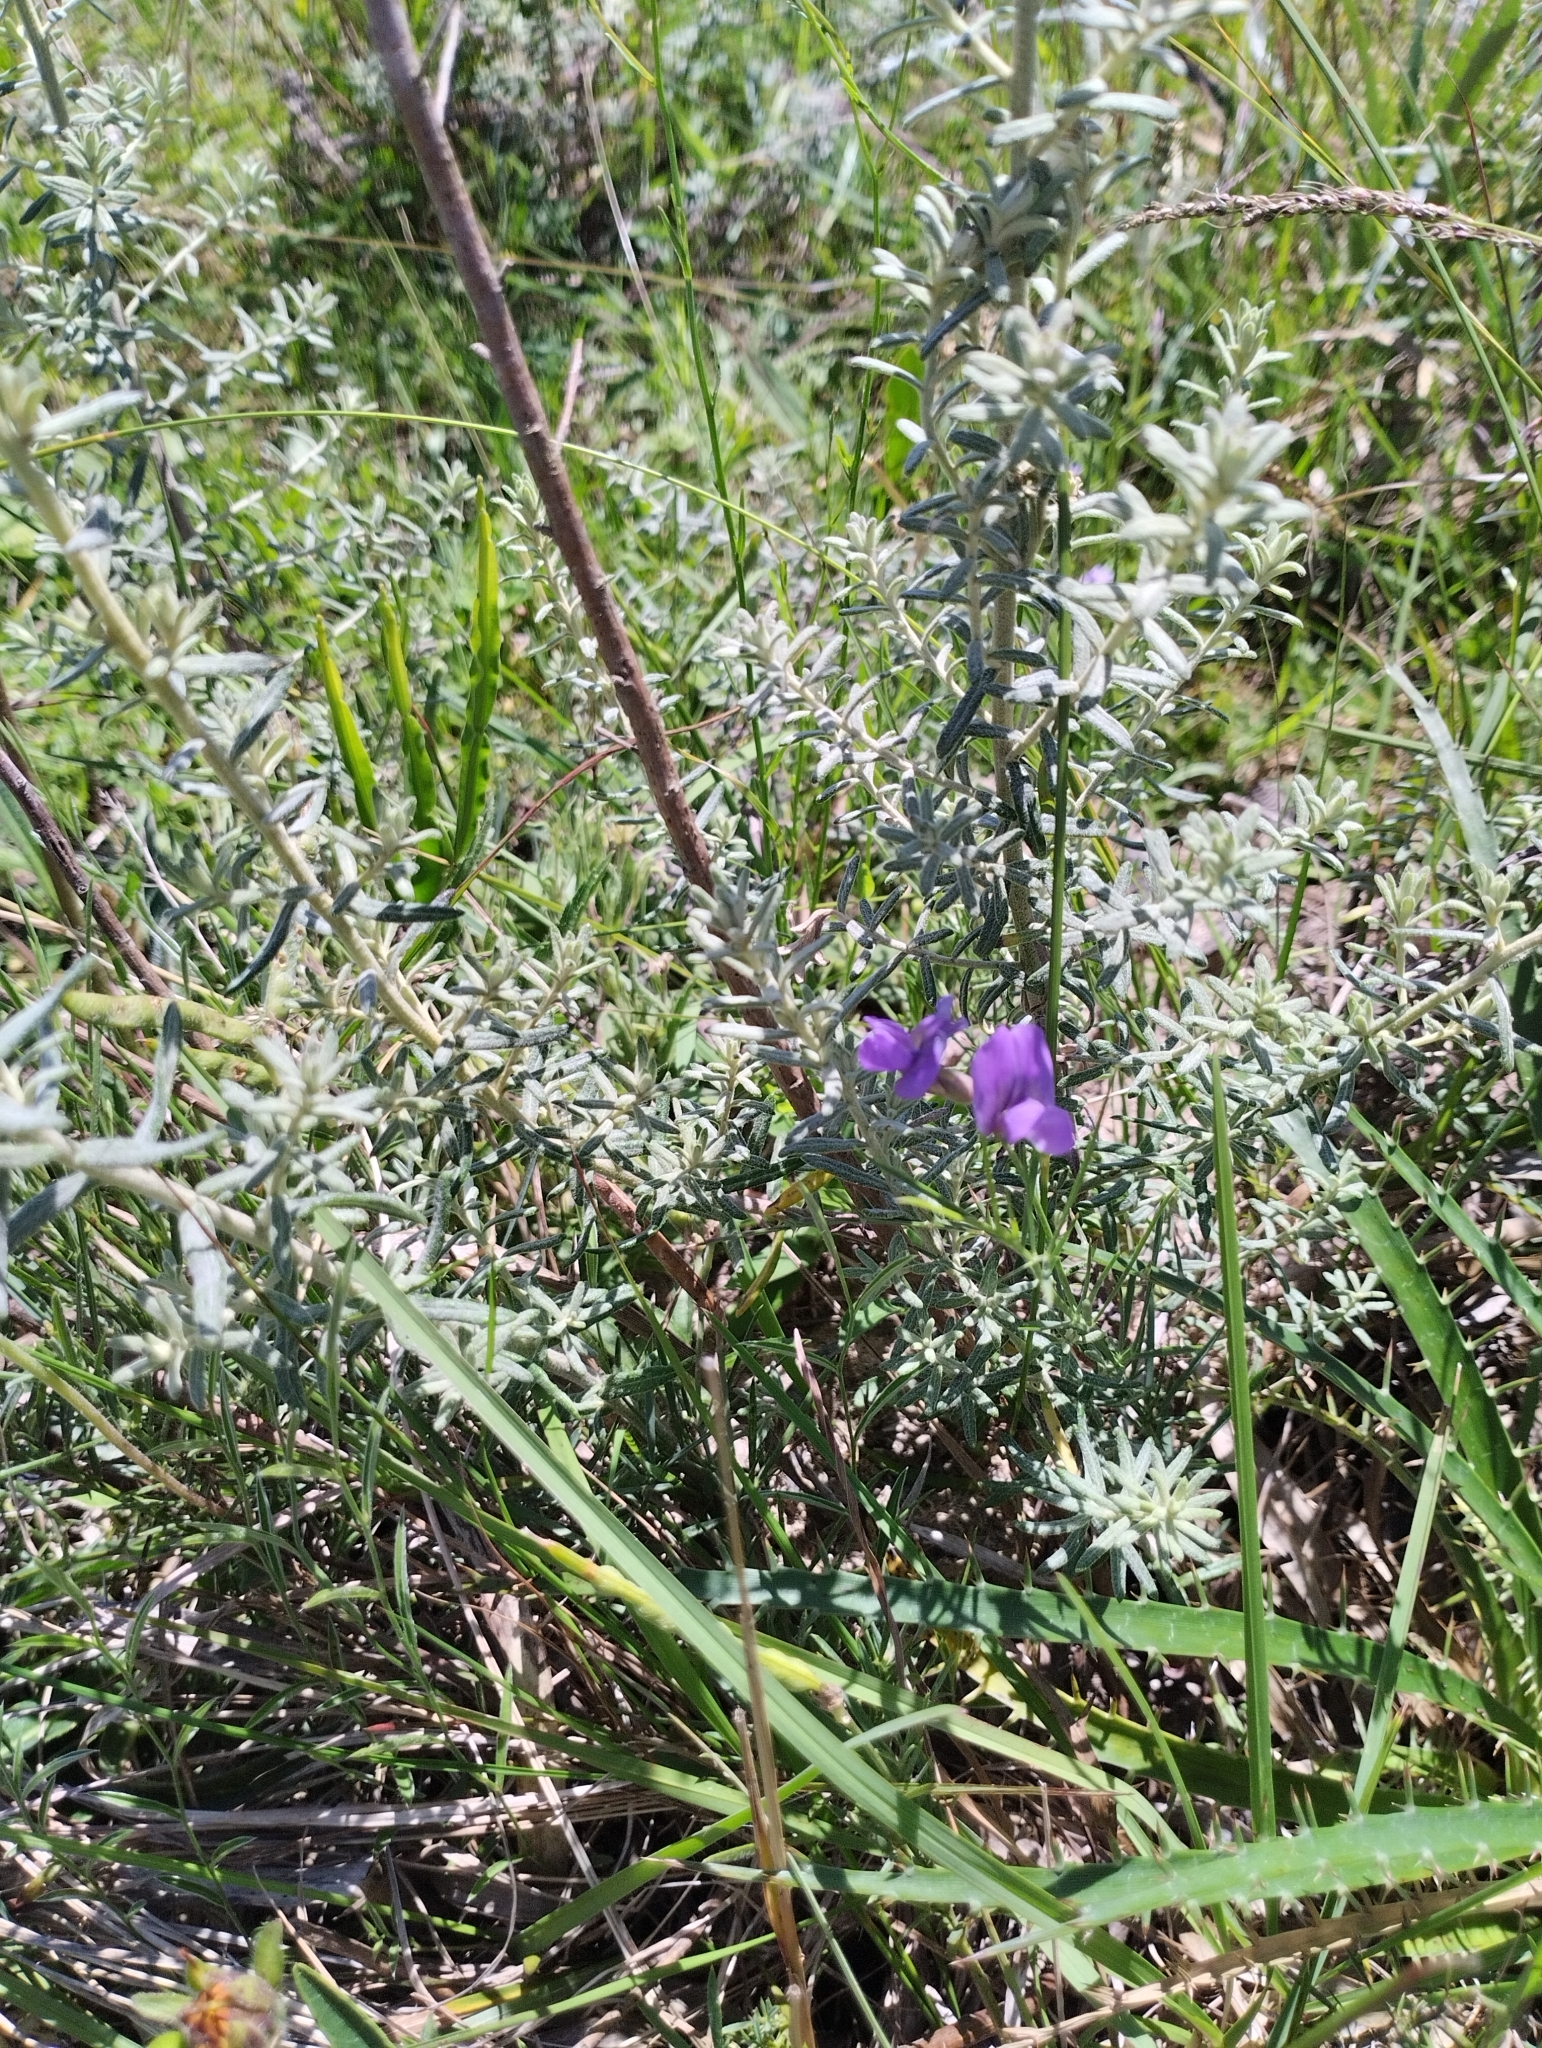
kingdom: Plantae
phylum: Tracheophyta
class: Magnoliopsida
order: Fabales
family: Fabaceae
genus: Lathyrus
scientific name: Lathyrus subulatus
